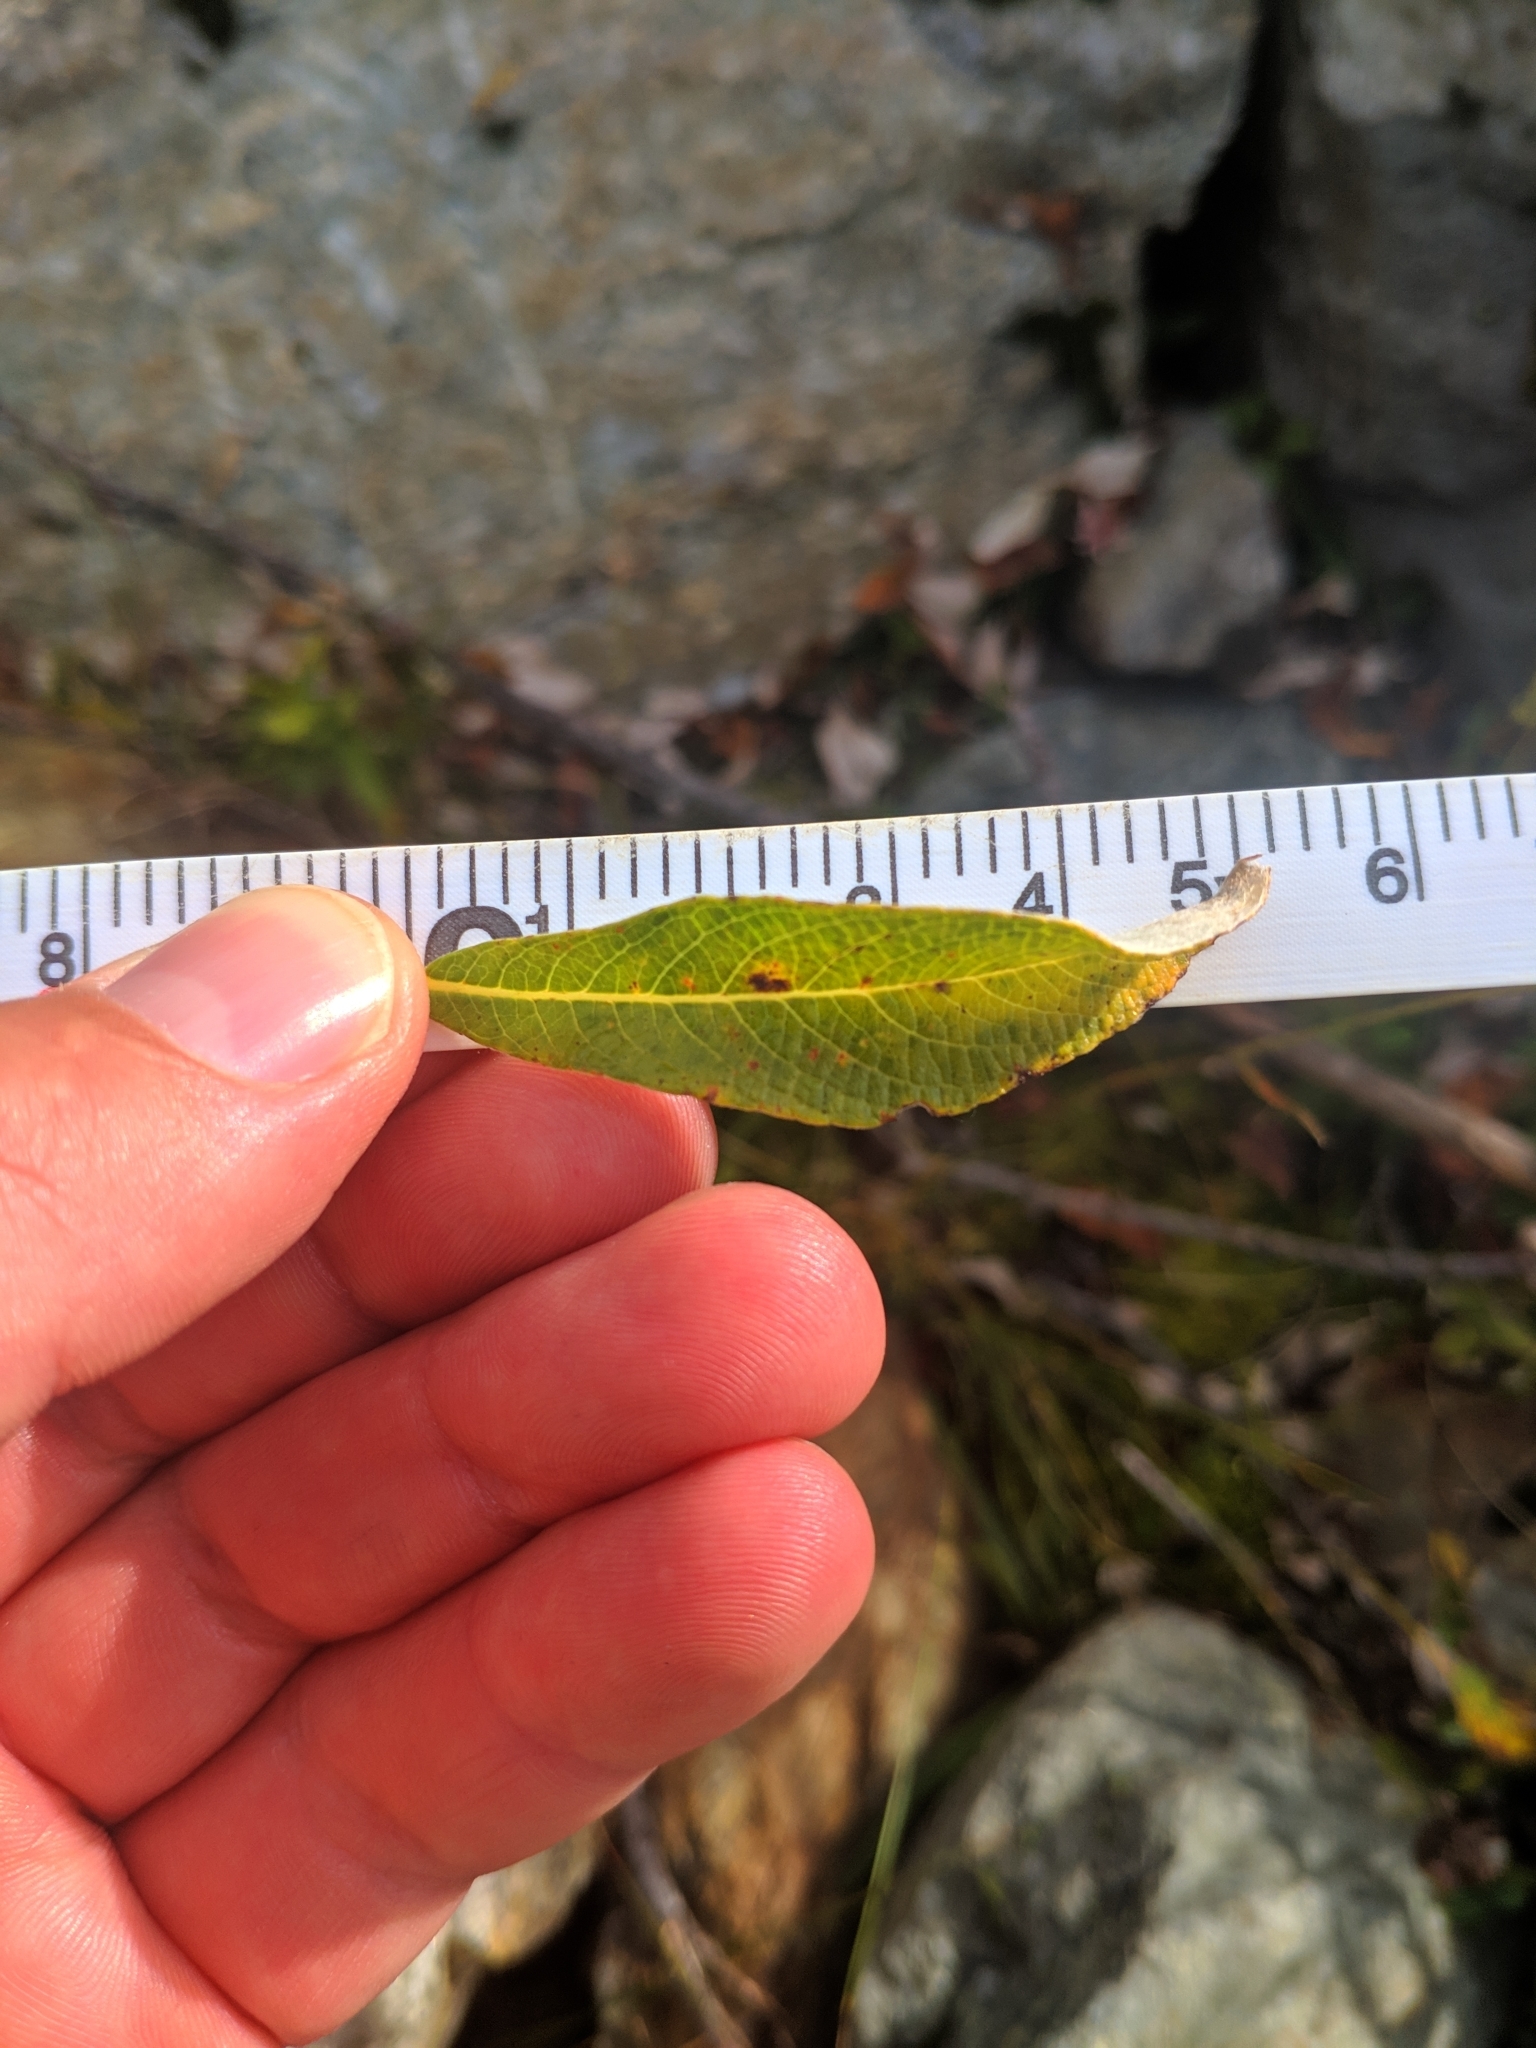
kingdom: Plantae
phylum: Tracheophyta
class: Magnoliopsida
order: Malpighiales
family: Salicaceae
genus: Salix
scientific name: Salix helvetica
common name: Swiss willow
